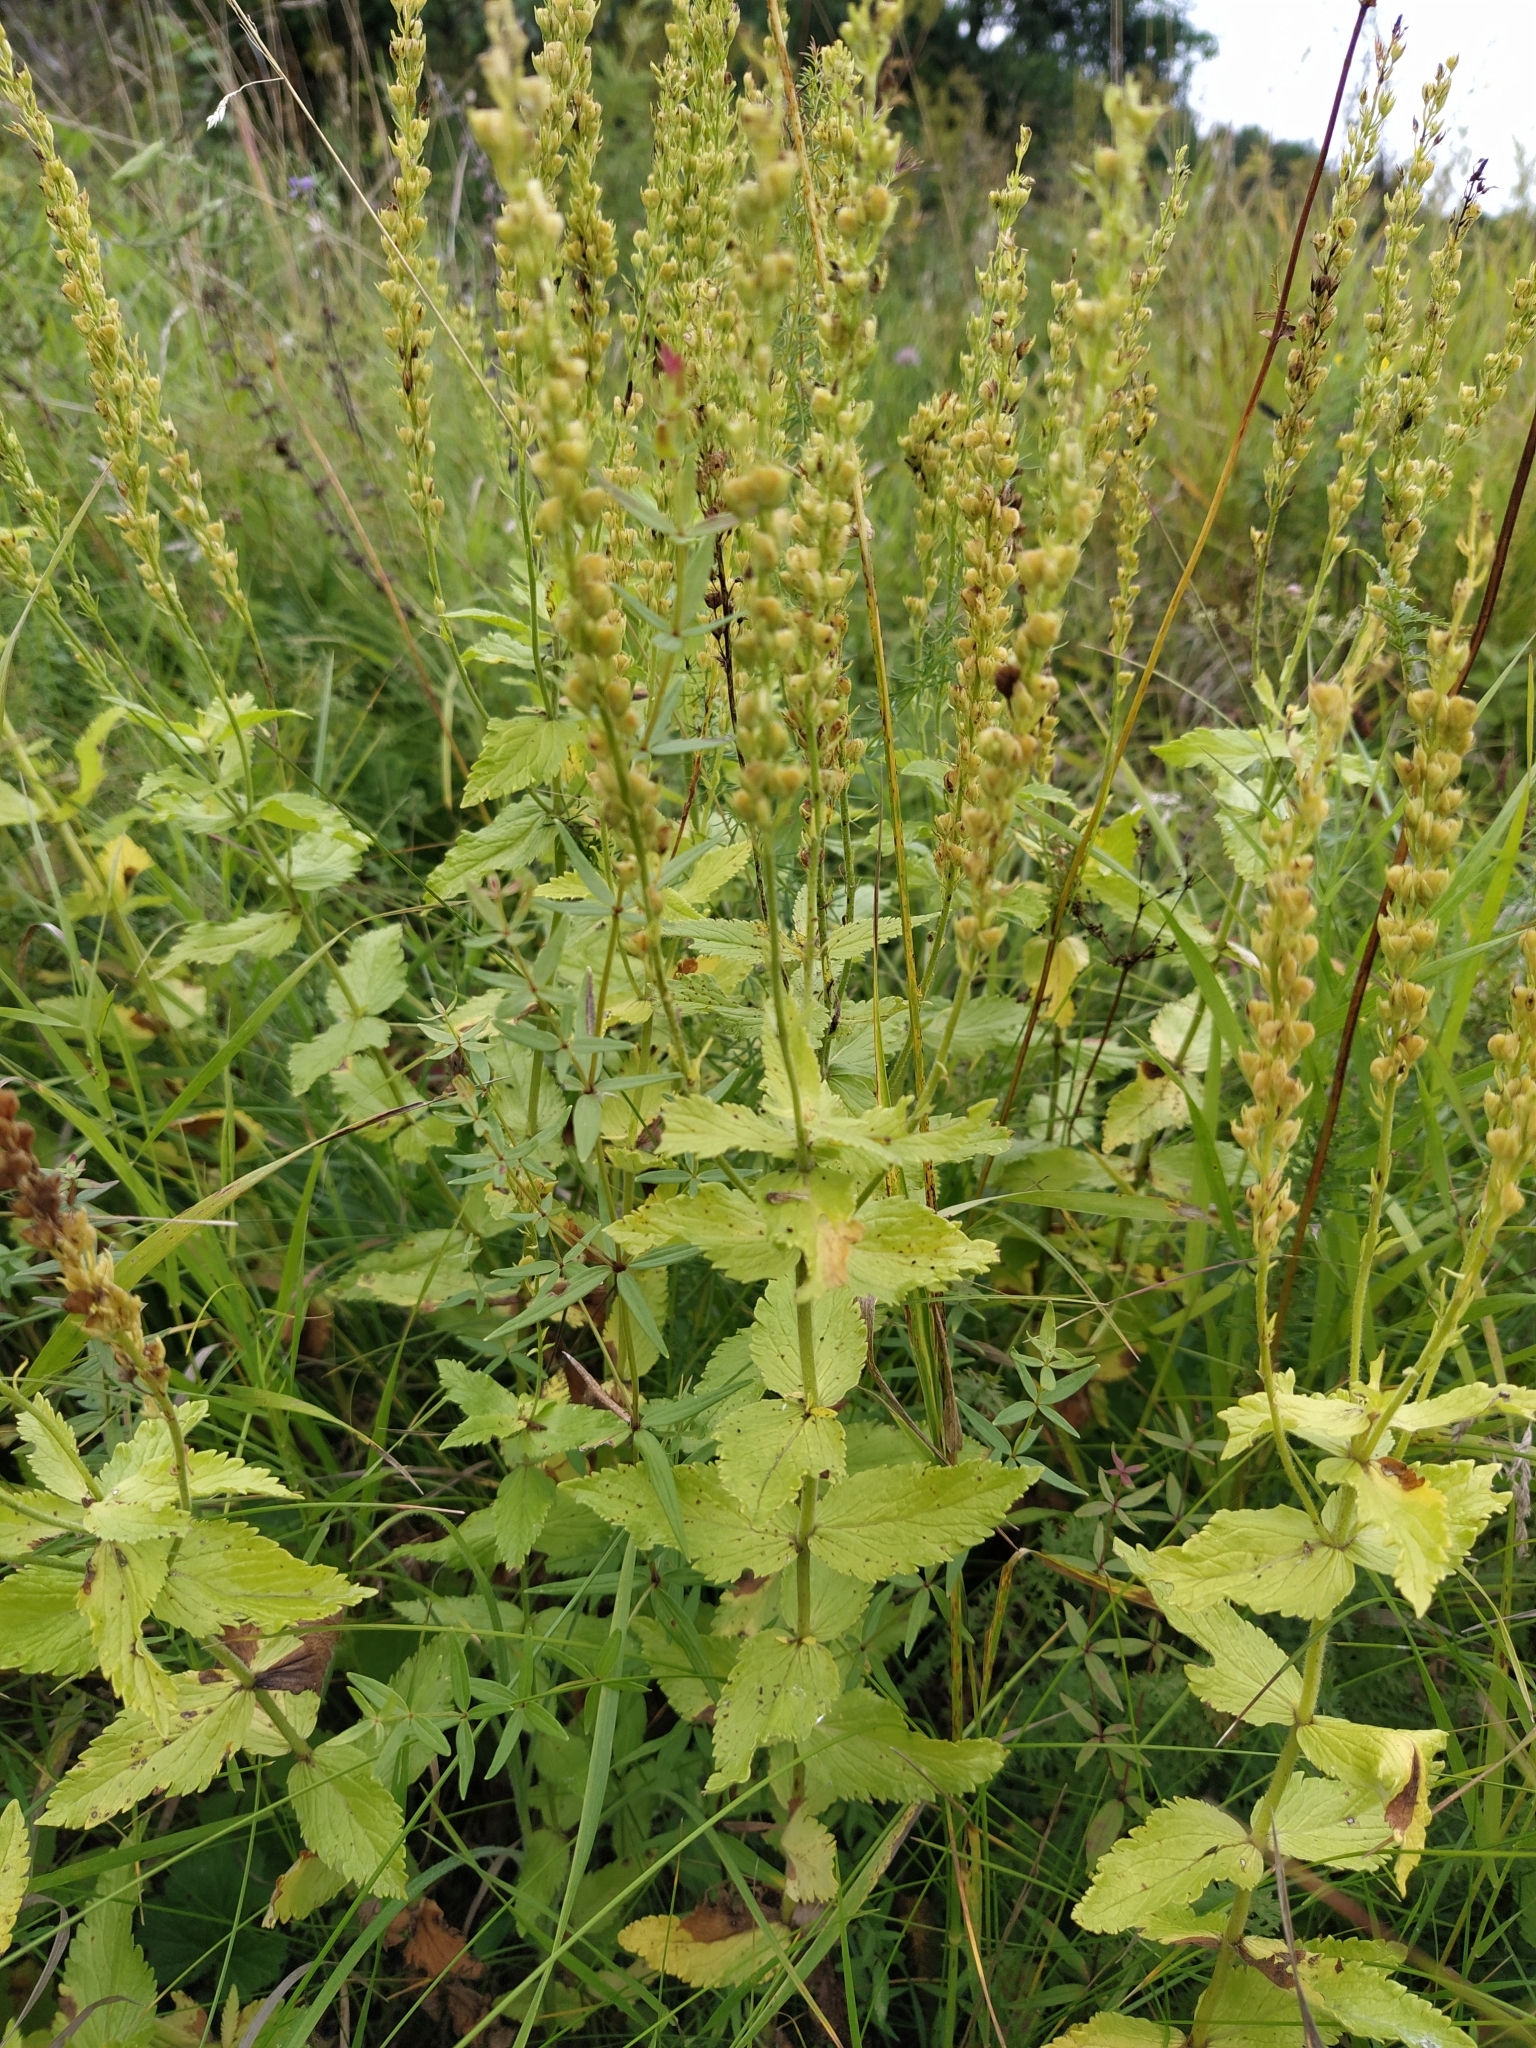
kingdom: Plantae
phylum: Tracheophyta
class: Magnoliopsida
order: Lamiales
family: Plantaginaceae
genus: Veronica
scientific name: Veronica teucrium
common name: Large speedwell
